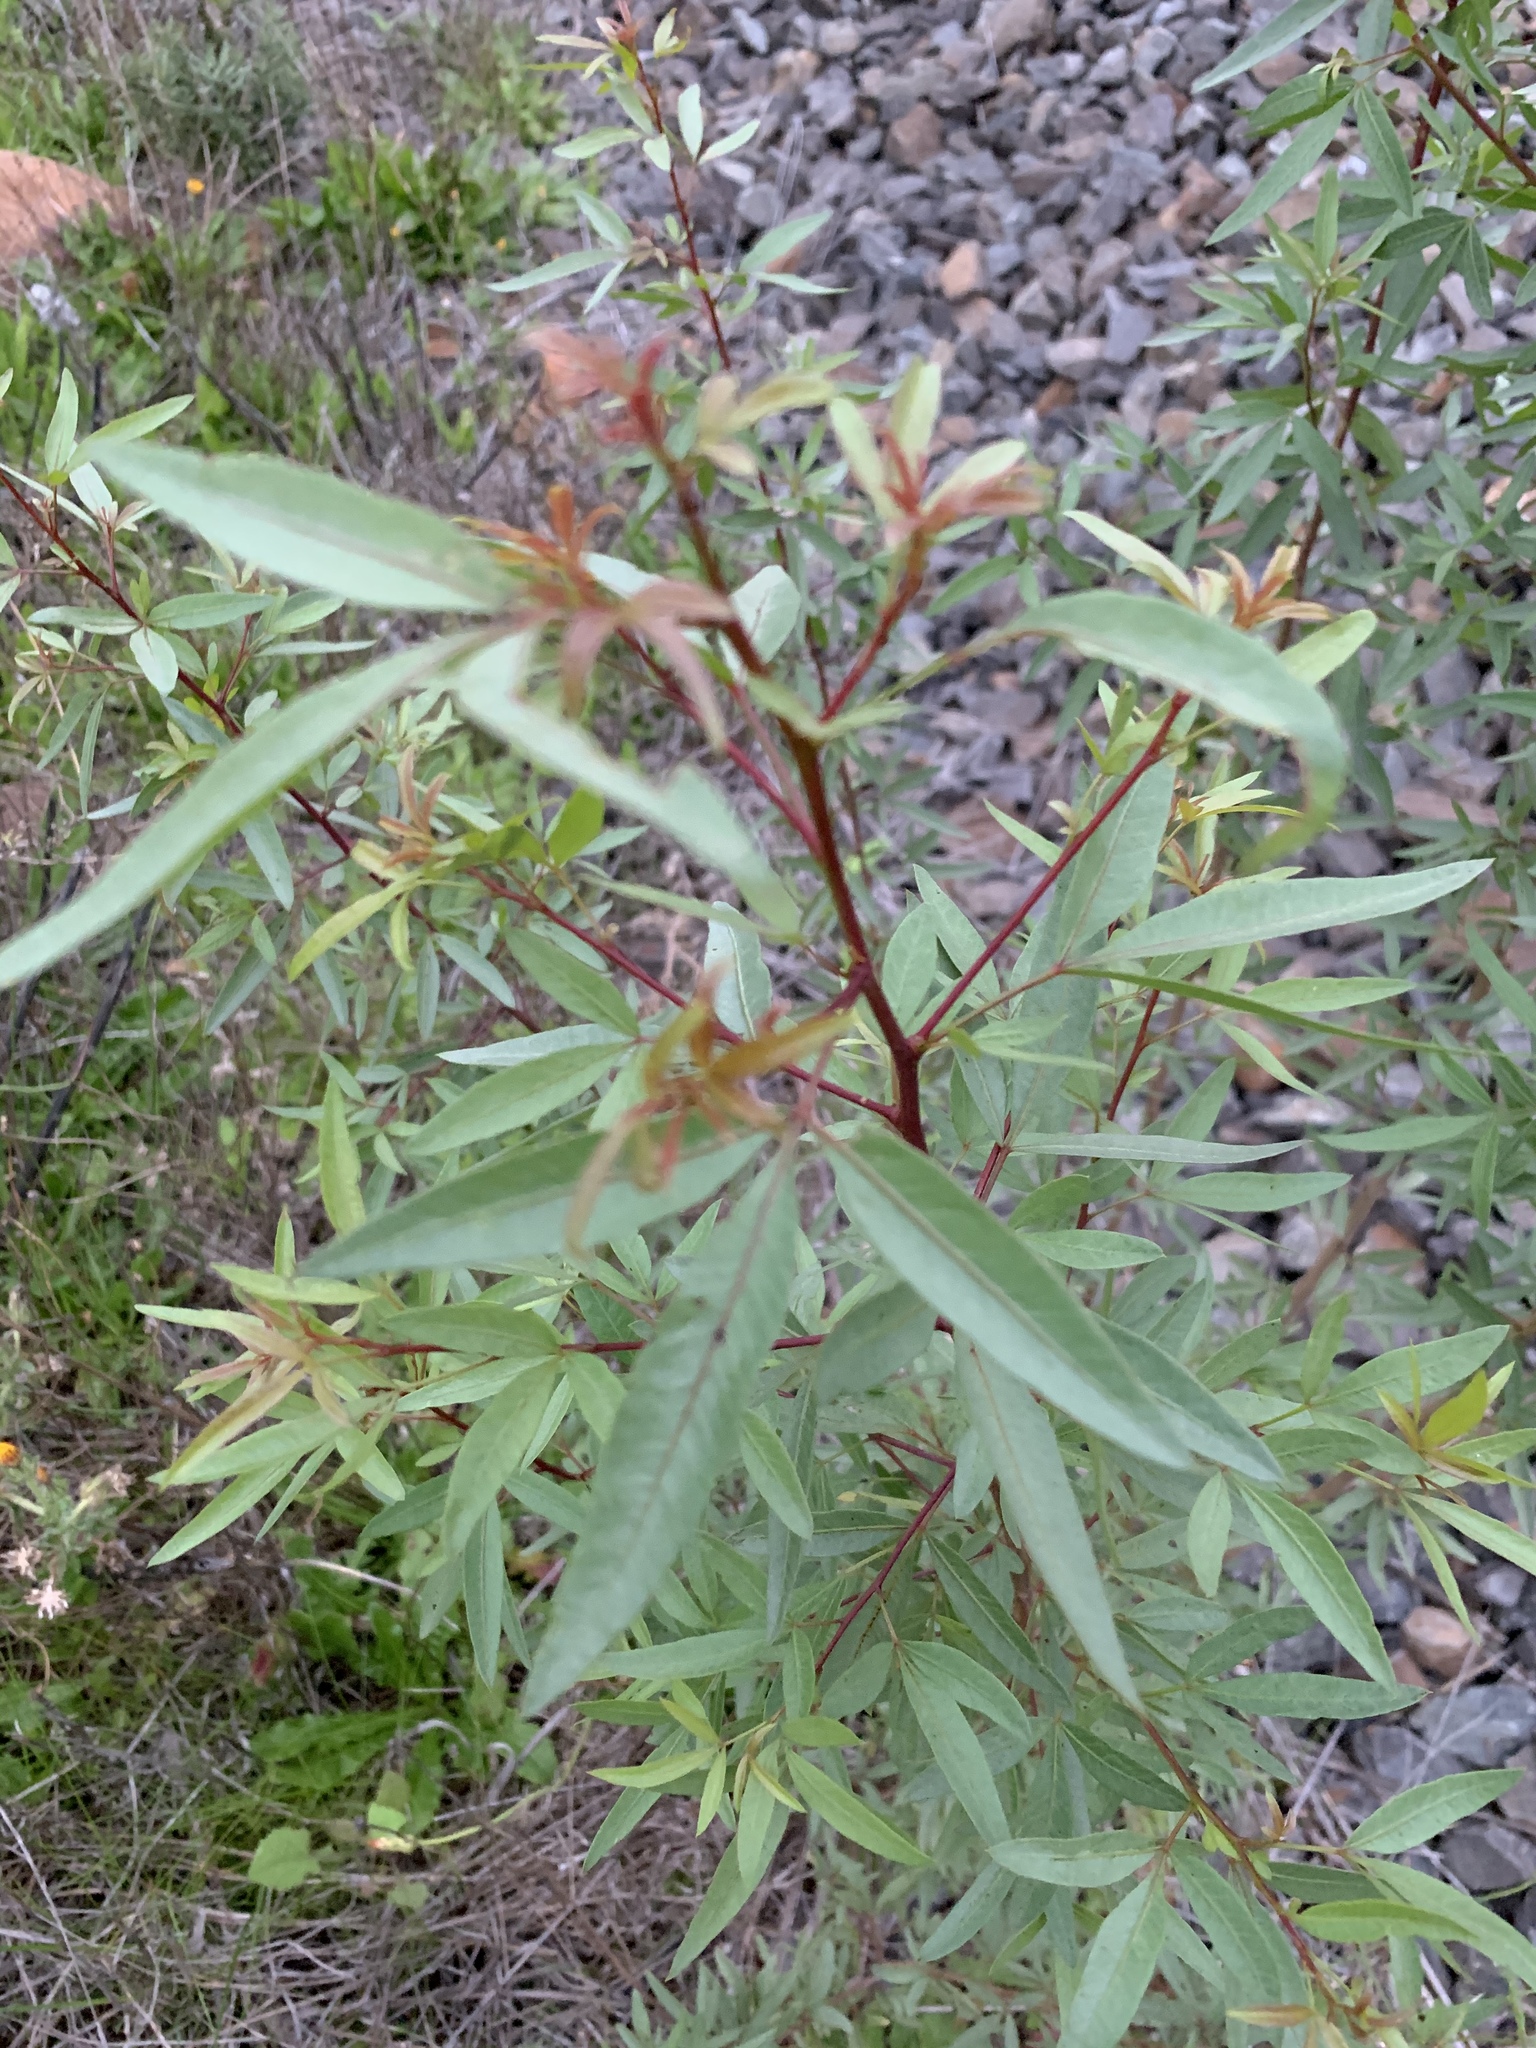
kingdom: Plantae
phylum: Tracheophyta
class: Magnoliopsida
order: Sapindales
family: Anacardiaceae
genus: Searsia
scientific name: Searsia pendulina
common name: White karee
